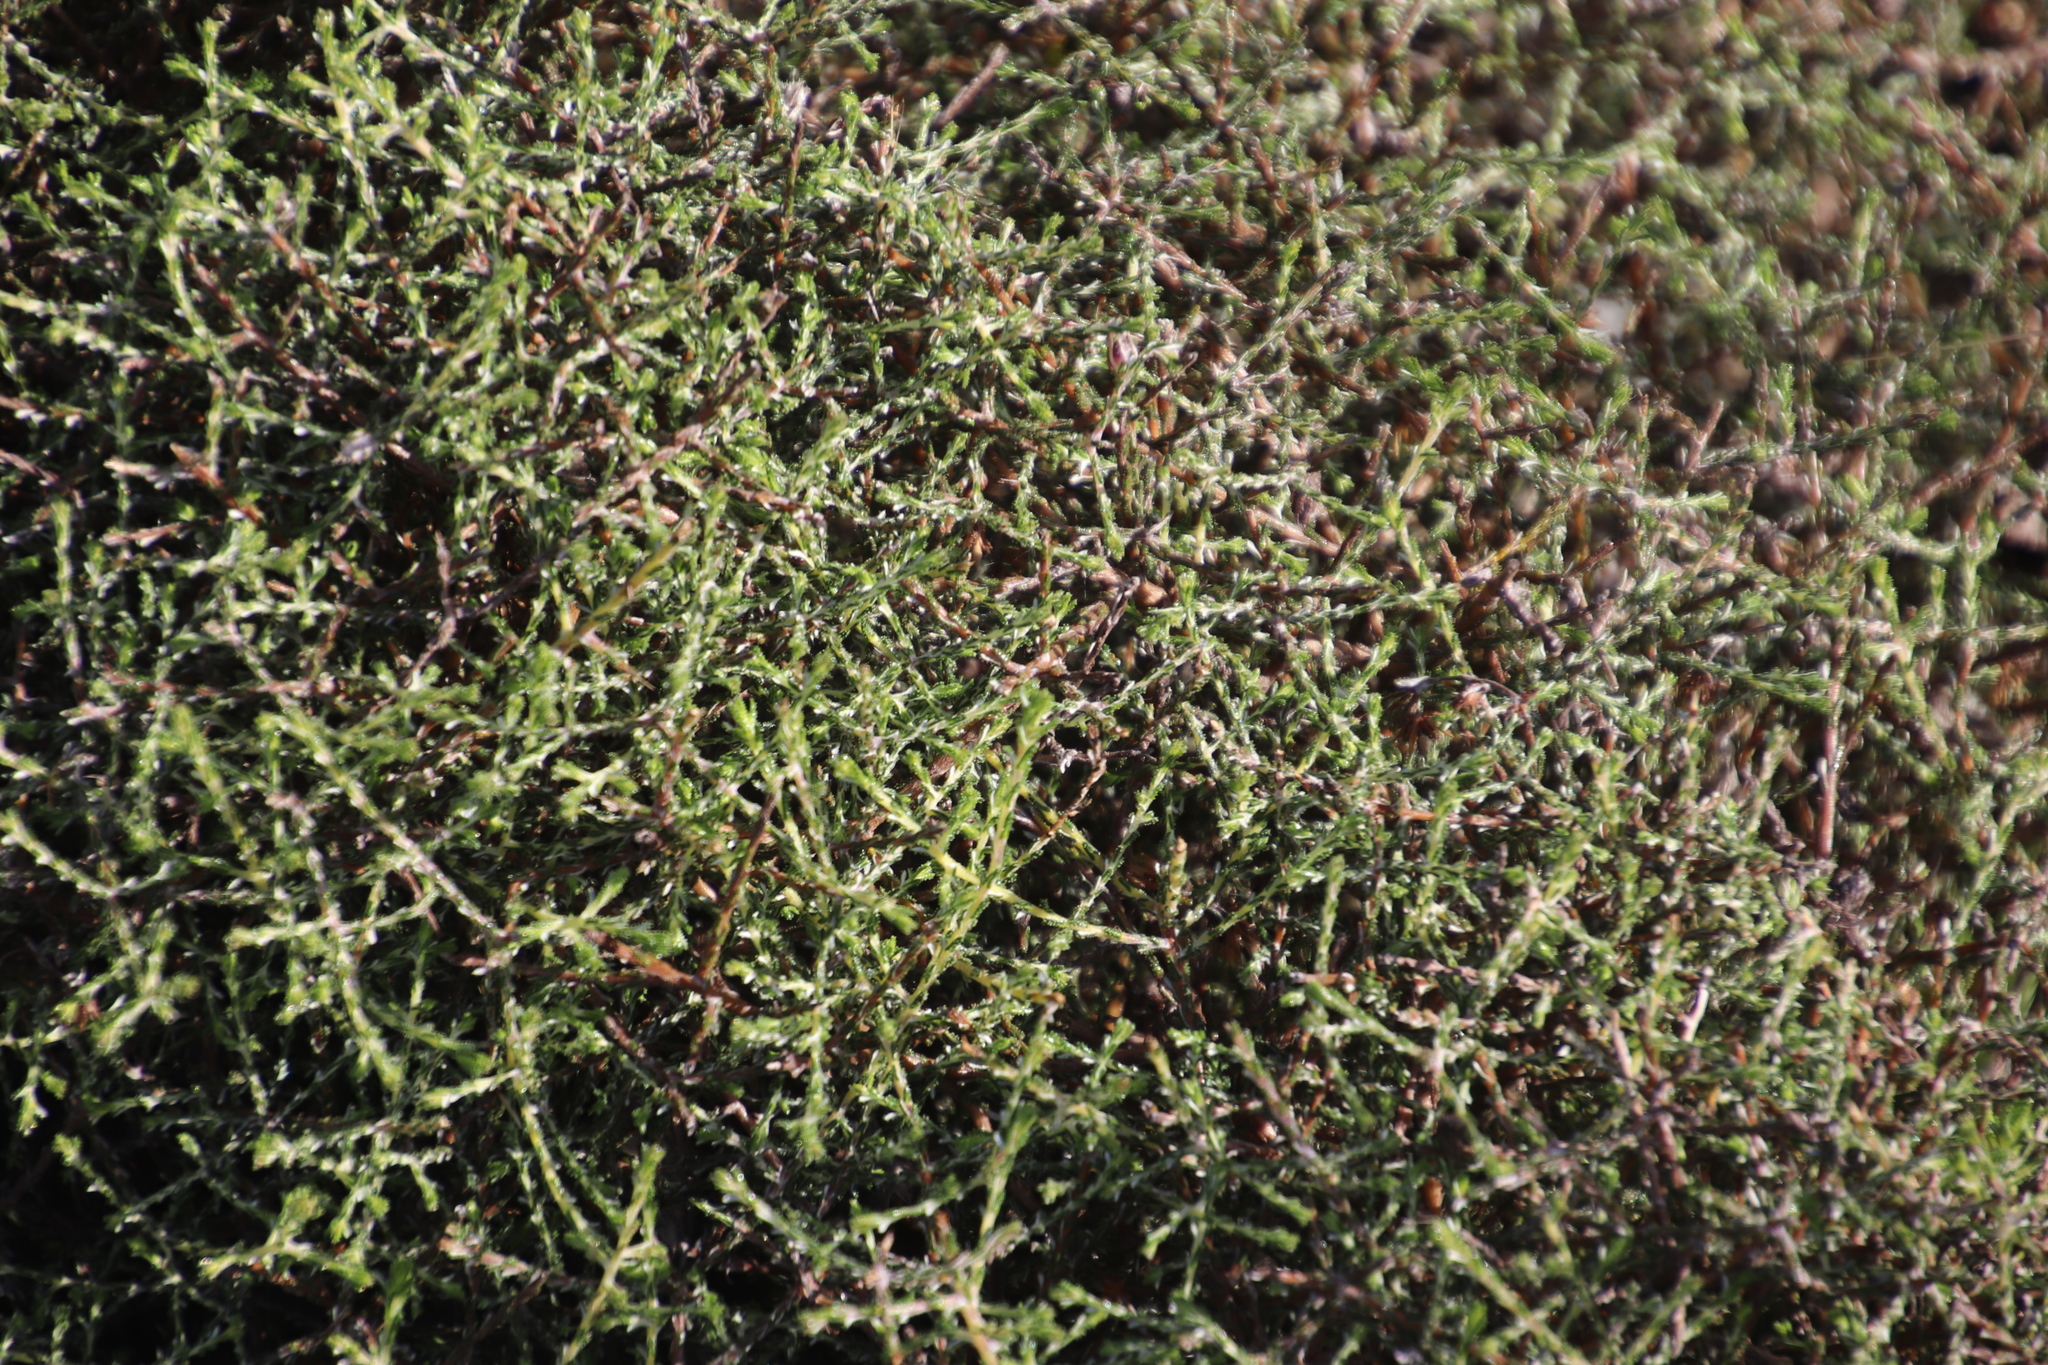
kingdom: Plantae
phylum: Tracheophyta
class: Magnoliopsida
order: Asterales
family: Asteraceae
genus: Myrovernix
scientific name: Myrovernix scaber
